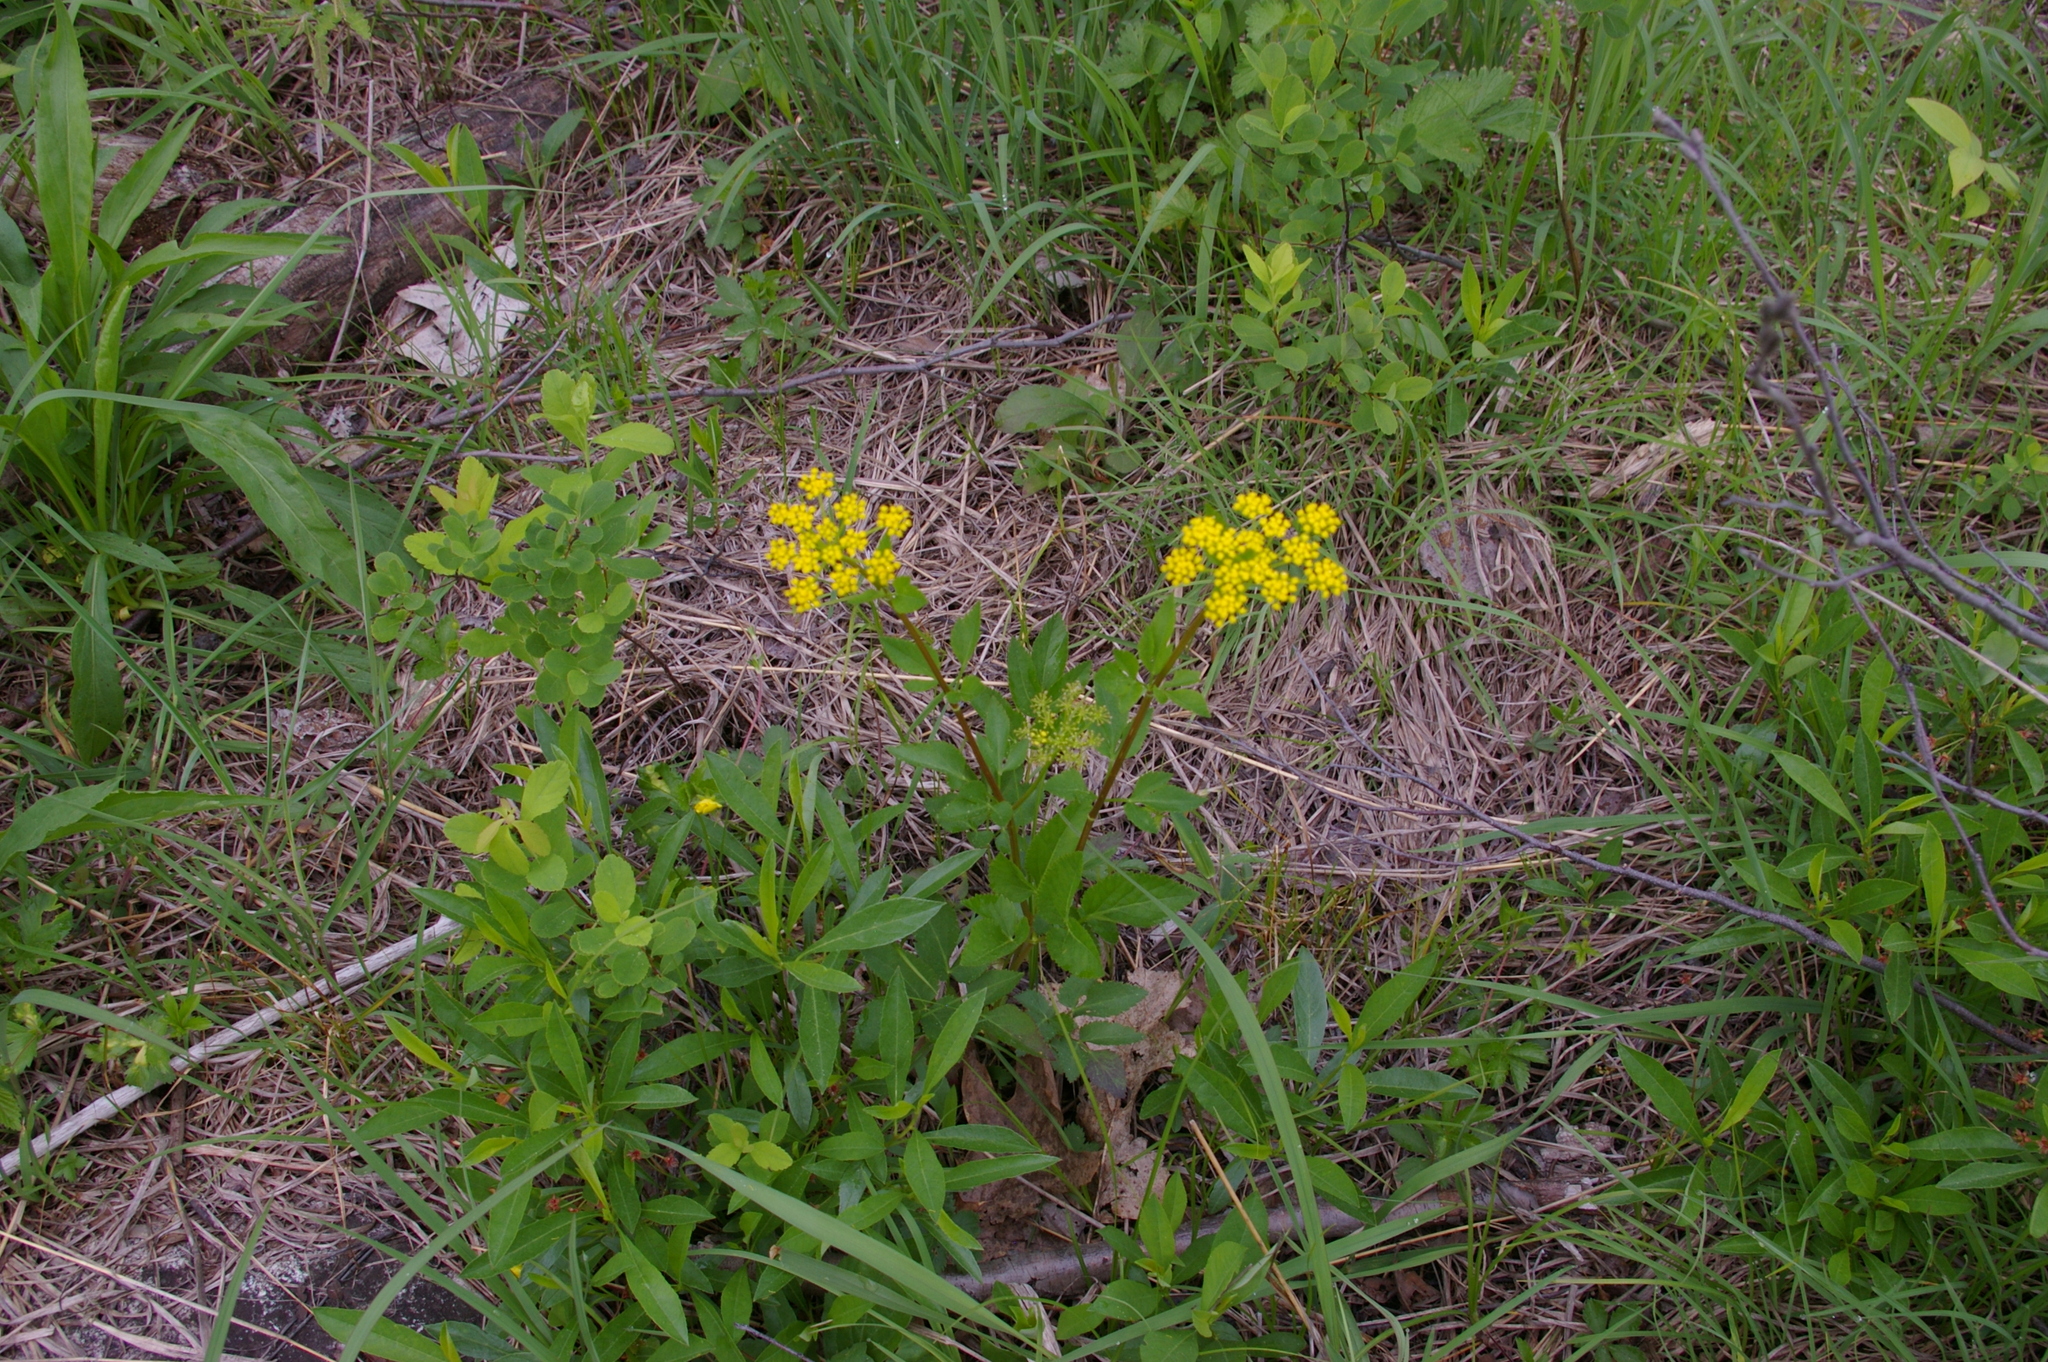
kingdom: Plantae
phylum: Tracheophyta
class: Magnoliopsida
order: Apiales
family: Apiaceae
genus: Zizia
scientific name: Zizia aurea
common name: Golden alexanders
